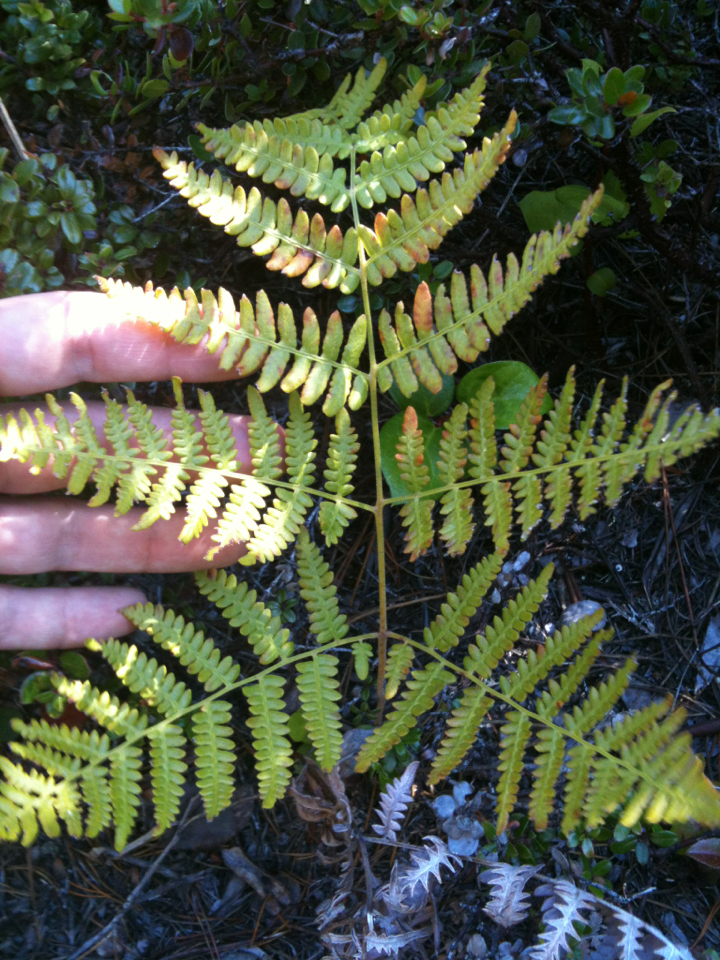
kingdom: Plantae
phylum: Tracheophyta
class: Polypodiopsida
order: Polypodiales
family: Dennstaedtiaceae
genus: Pteridium
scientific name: Pteridium aquilinum
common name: Bracken
